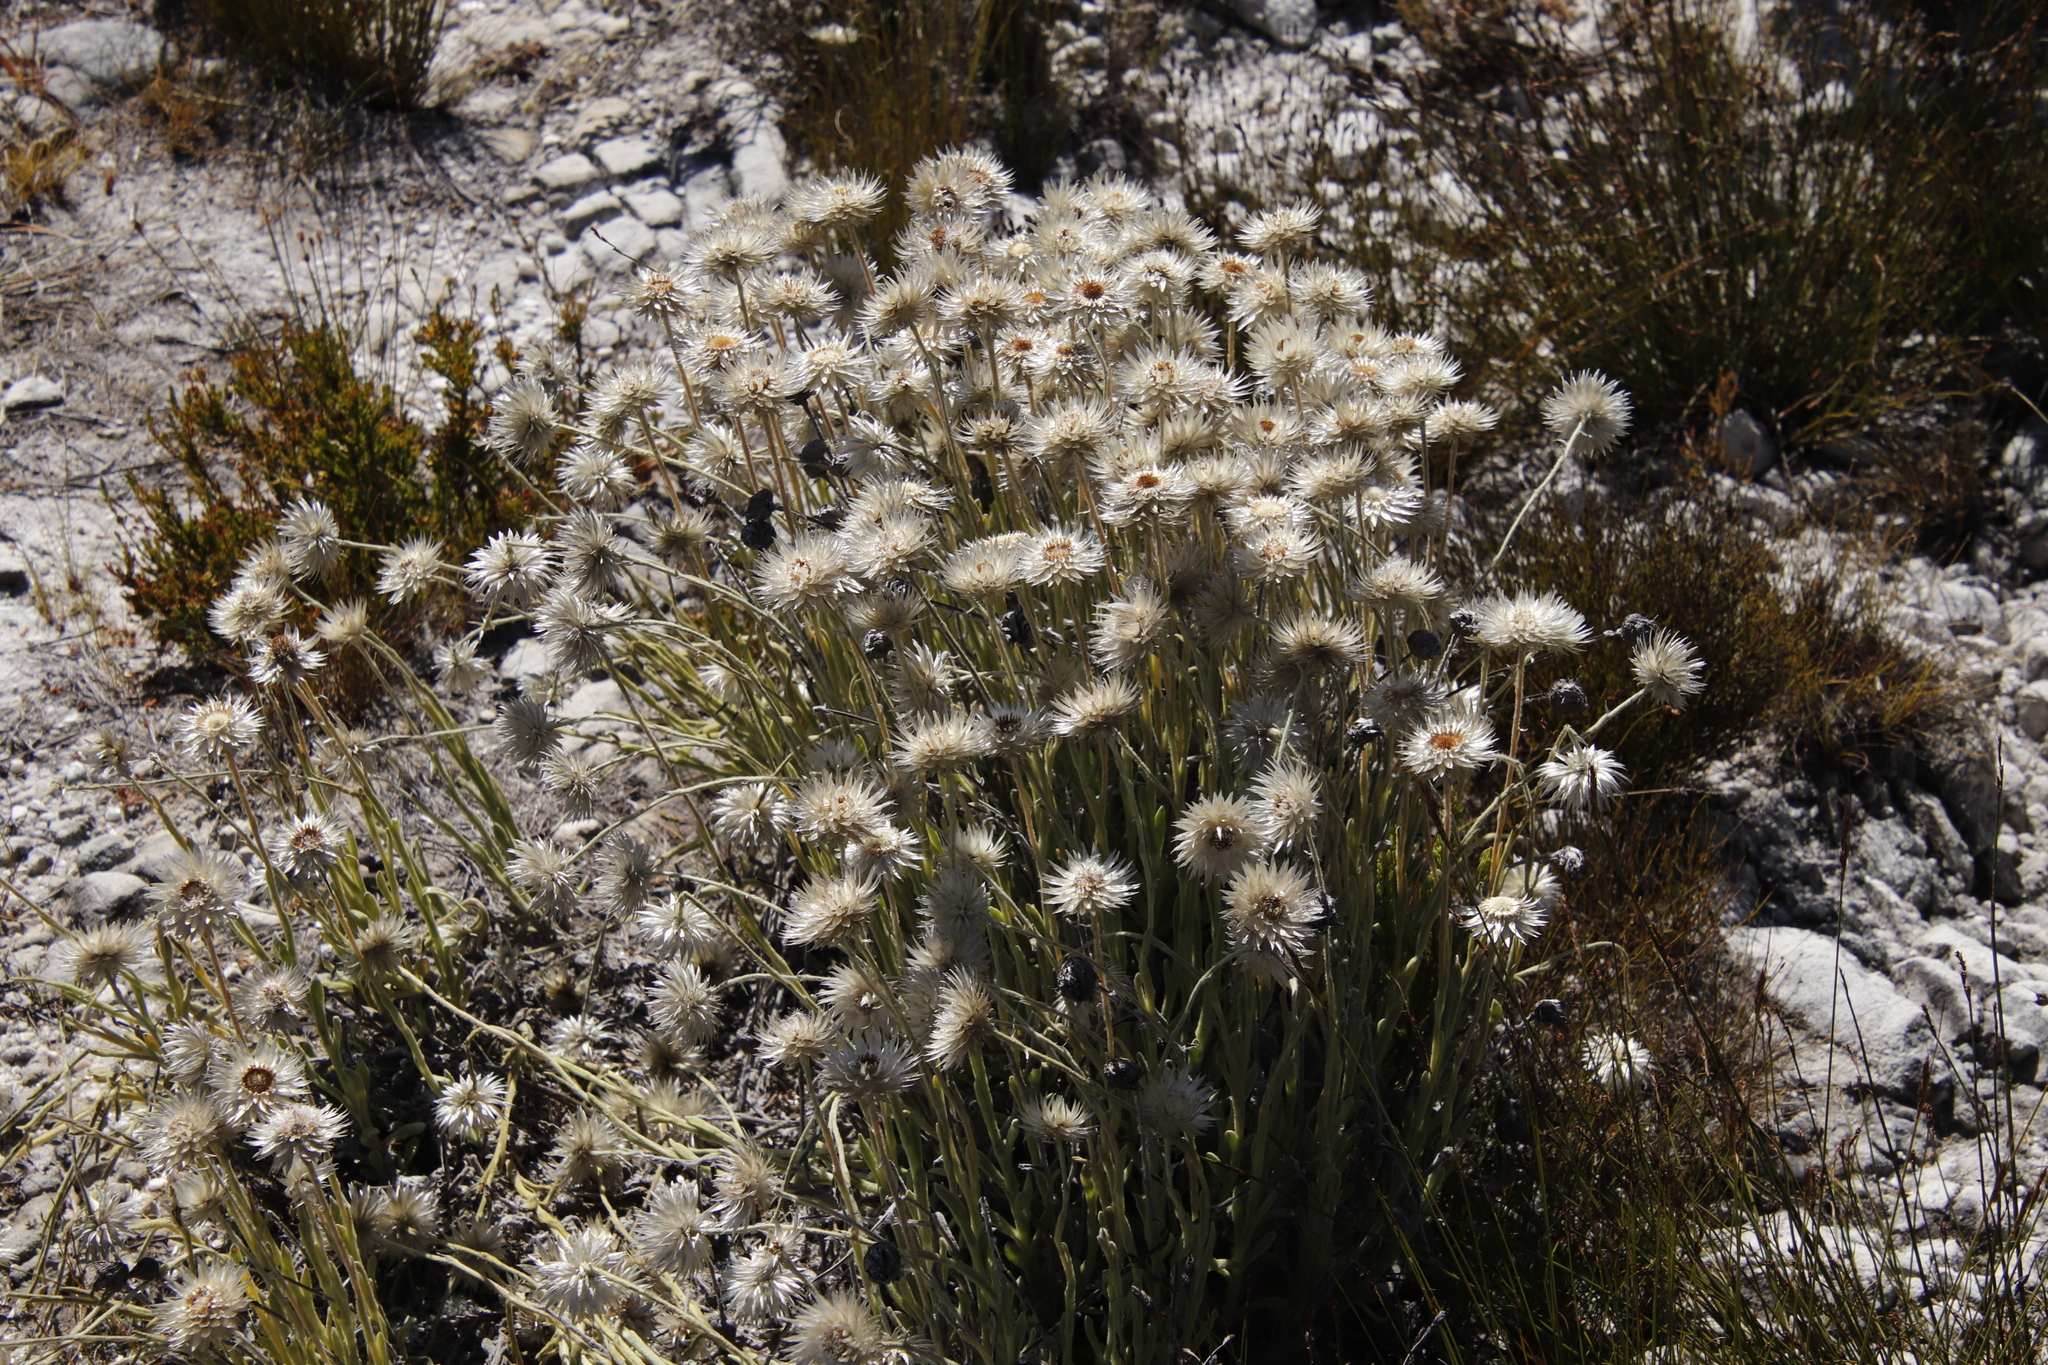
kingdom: Plantae
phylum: Tracheophyta
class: Magnoliopsida
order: Asterales
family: Asteraceae
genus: Syncarpha
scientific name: Syncarpha vestita
